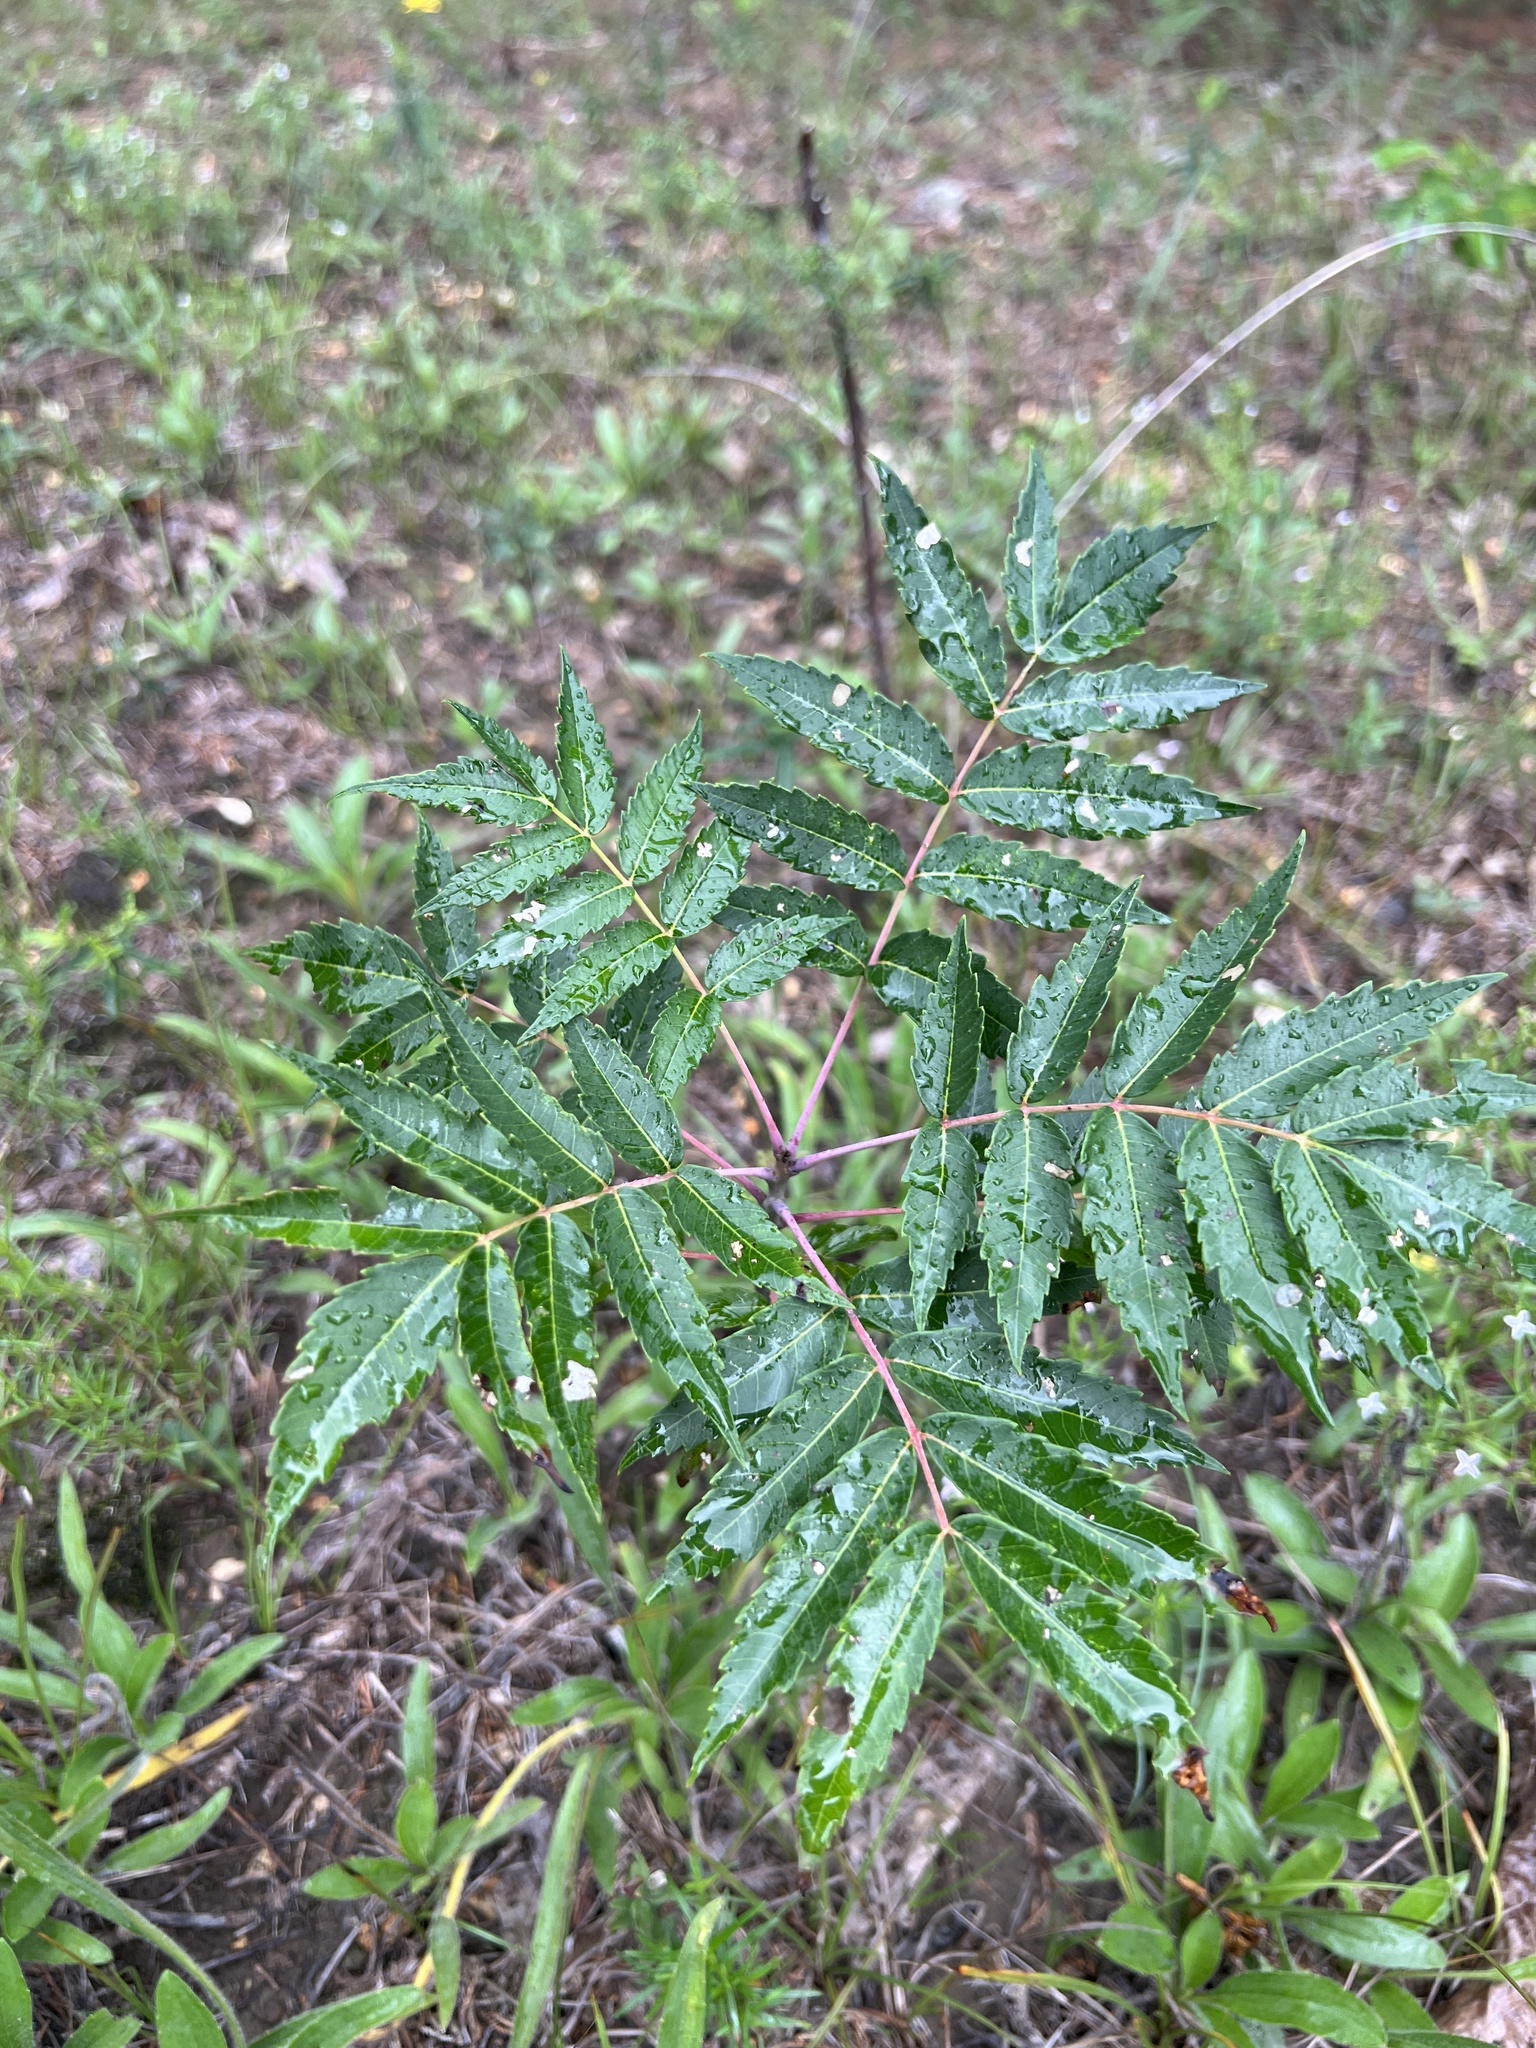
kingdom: Plantae
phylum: Tracheophyta
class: Magnoliopsida
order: Sapindales
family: Anacardiaceae
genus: Rhus
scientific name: Rhus glabra
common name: Scarlet sumac
